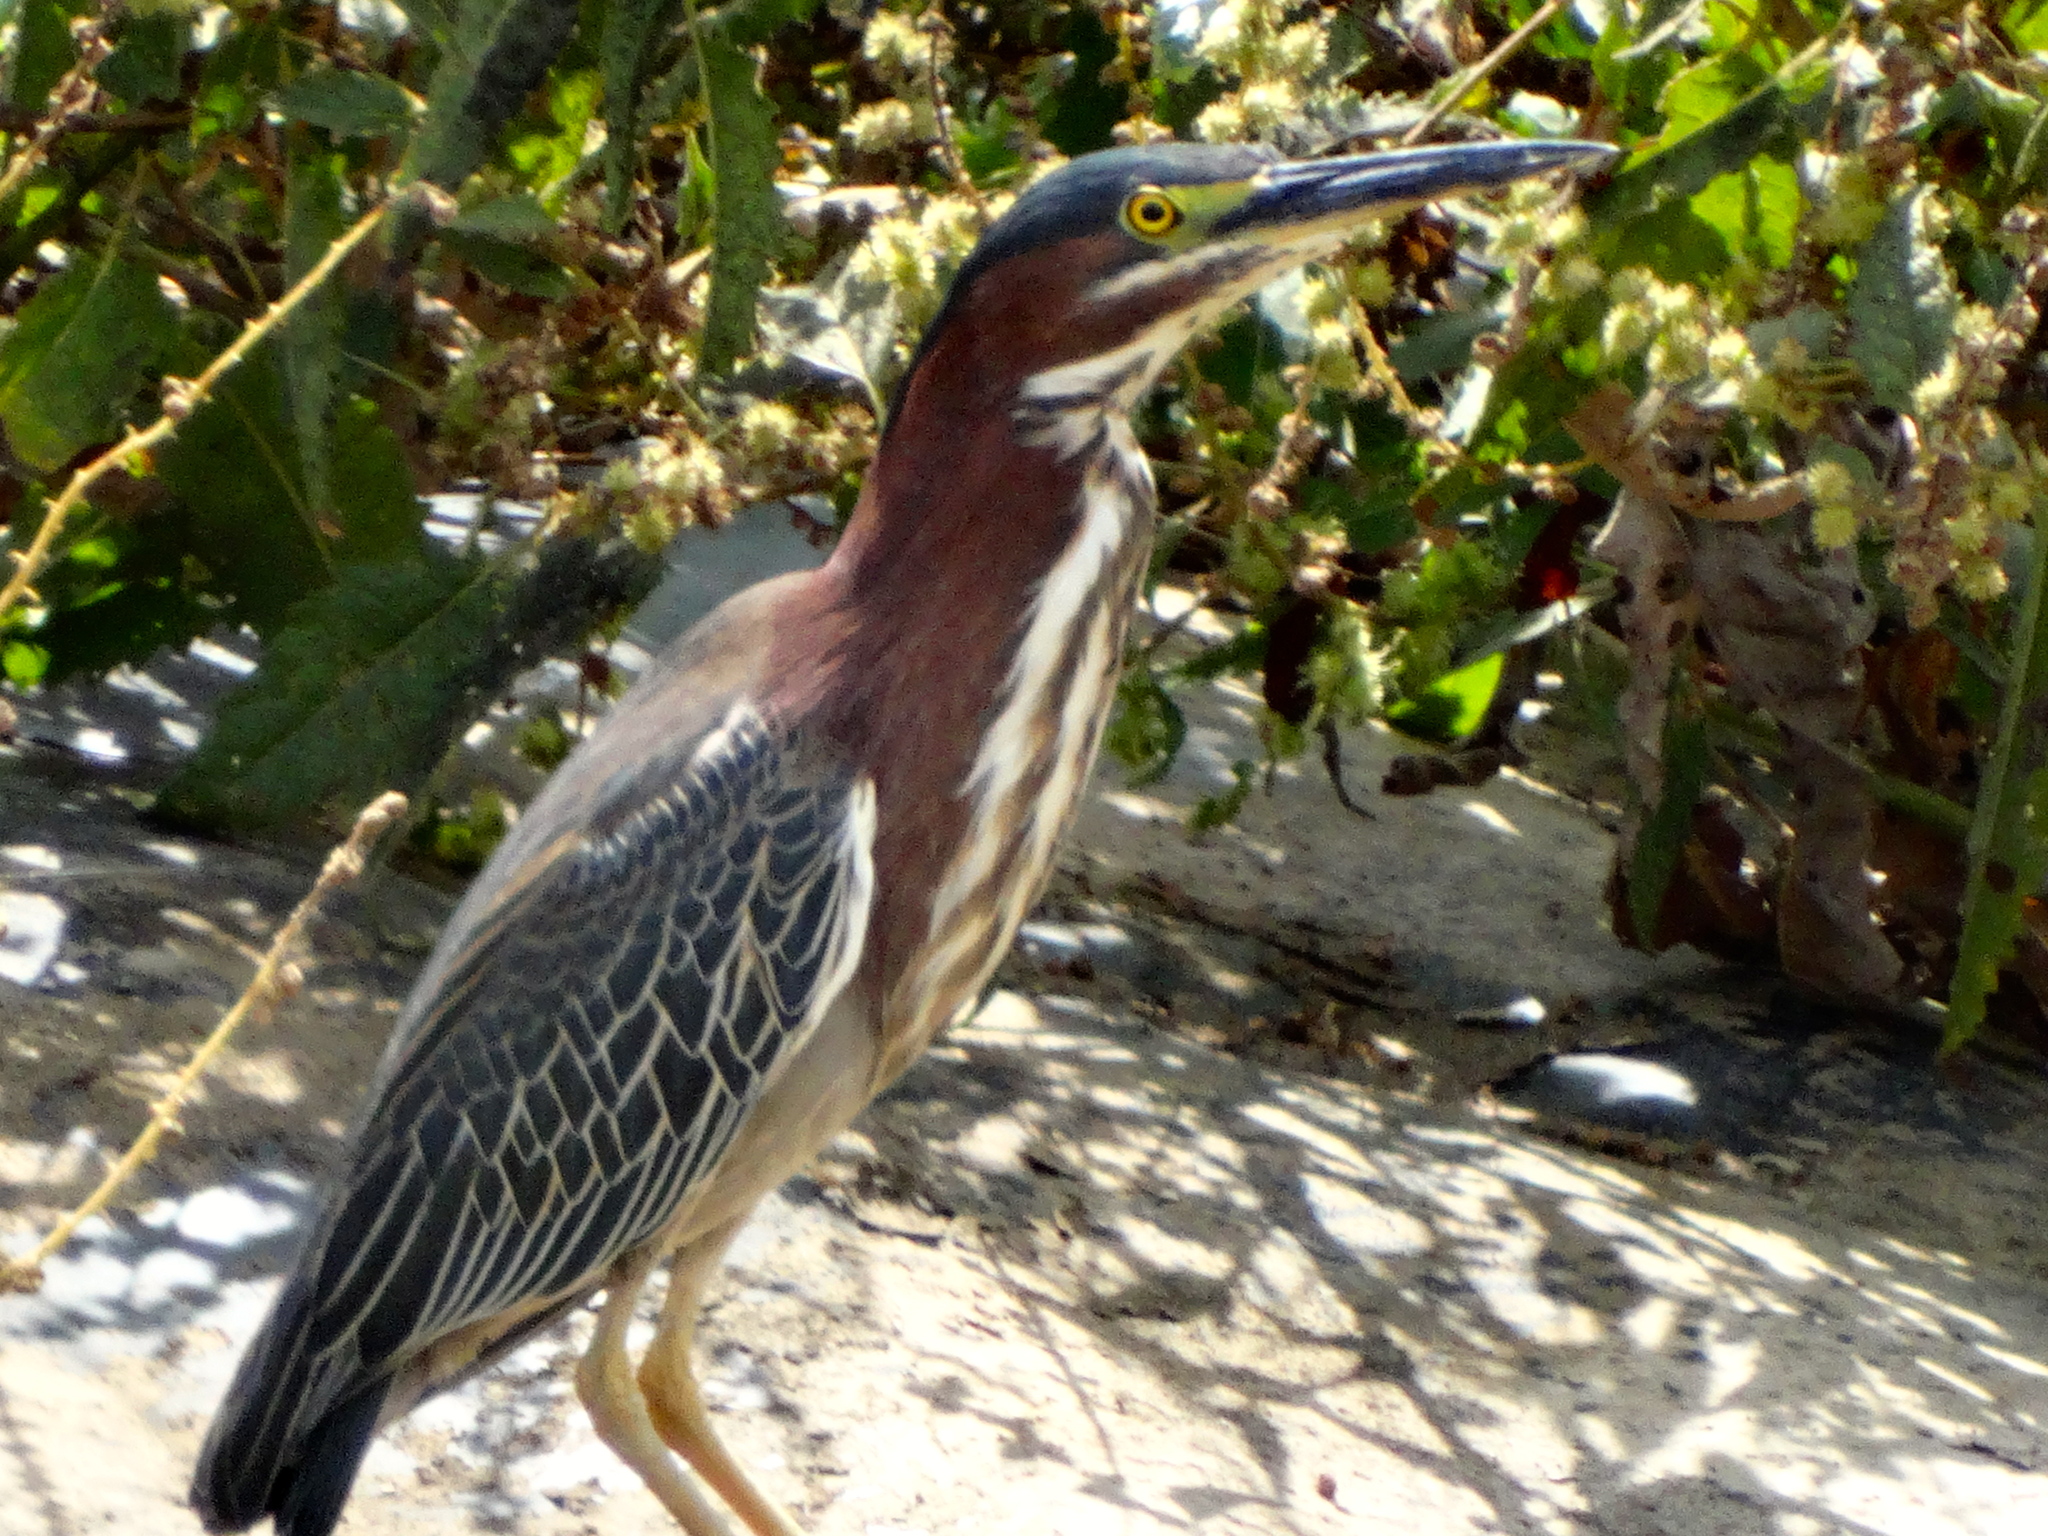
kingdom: Animalia
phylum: Chordata
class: Aves
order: Pelecaniformes
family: Ardeidae
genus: Butorides
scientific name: Butorides virescens
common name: Green heron
